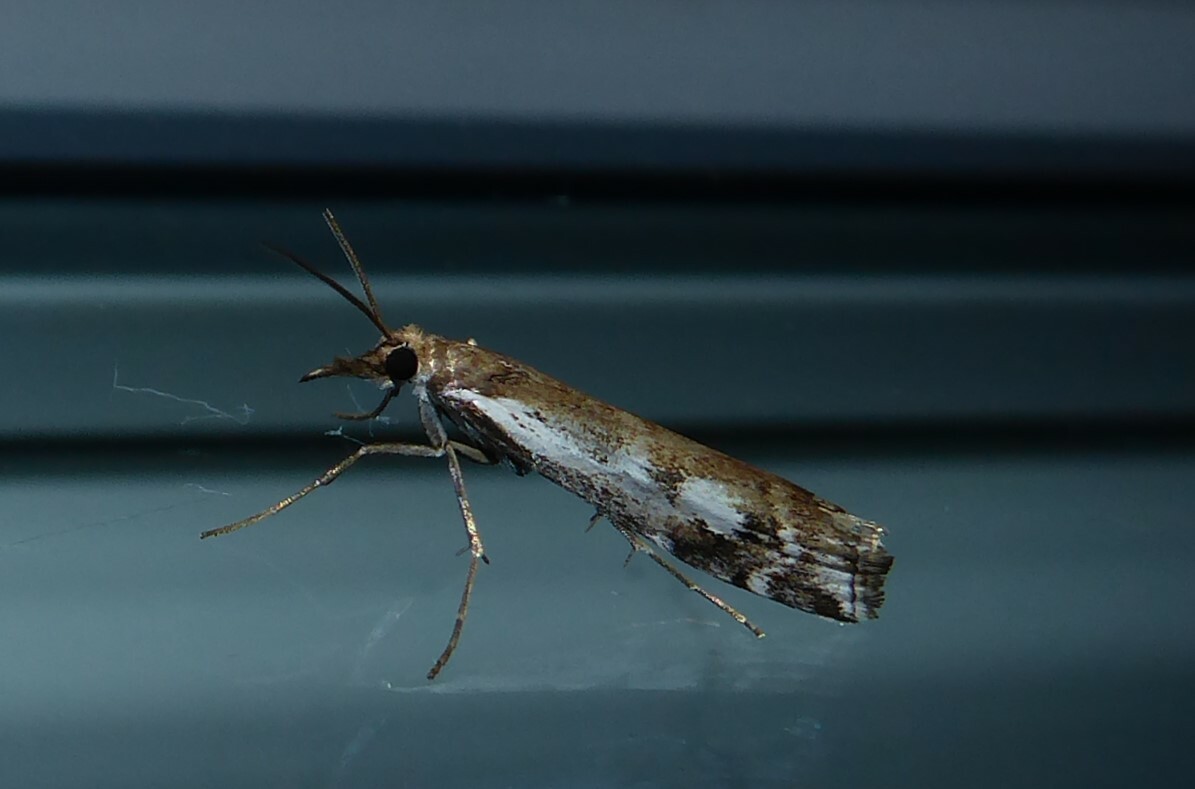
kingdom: Animalia
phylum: Arthropoda
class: Insecta
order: Lepidoptera
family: Crambidae
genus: Orocrambus
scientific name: Orocrambus vulgaris
